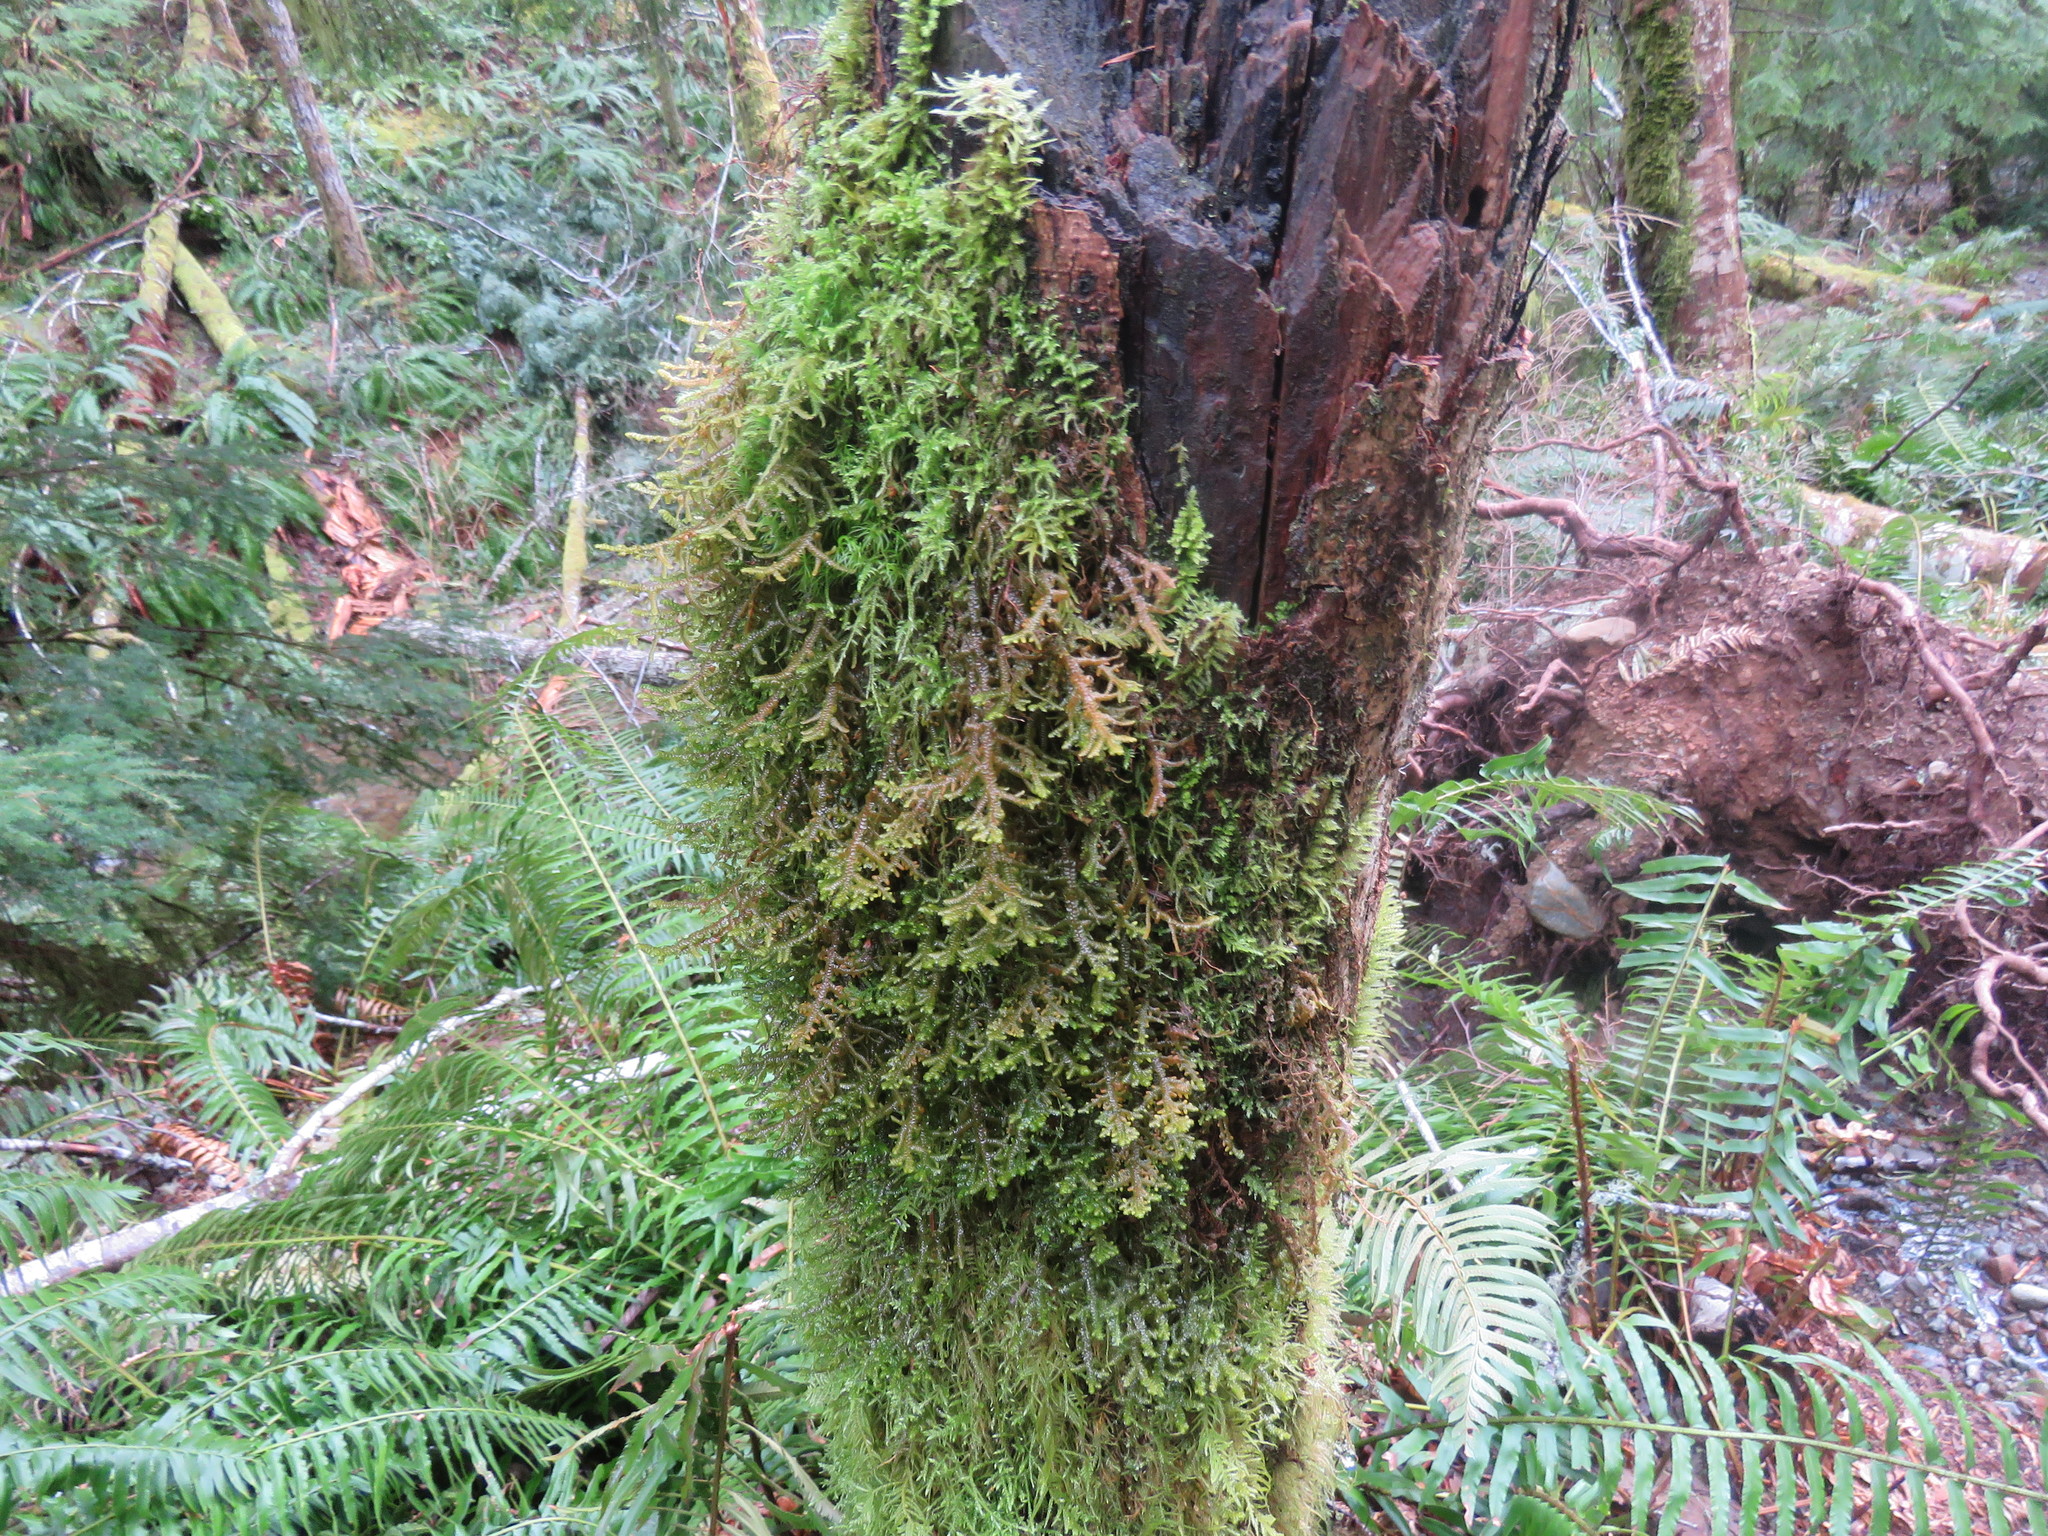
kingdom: Plantae
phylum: Marchantiophyta
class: Jungermanniopsida
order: Porellales
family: Porellaceae
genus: Porella
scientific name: Porella navicularis
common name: Tree ruffle liverwort
